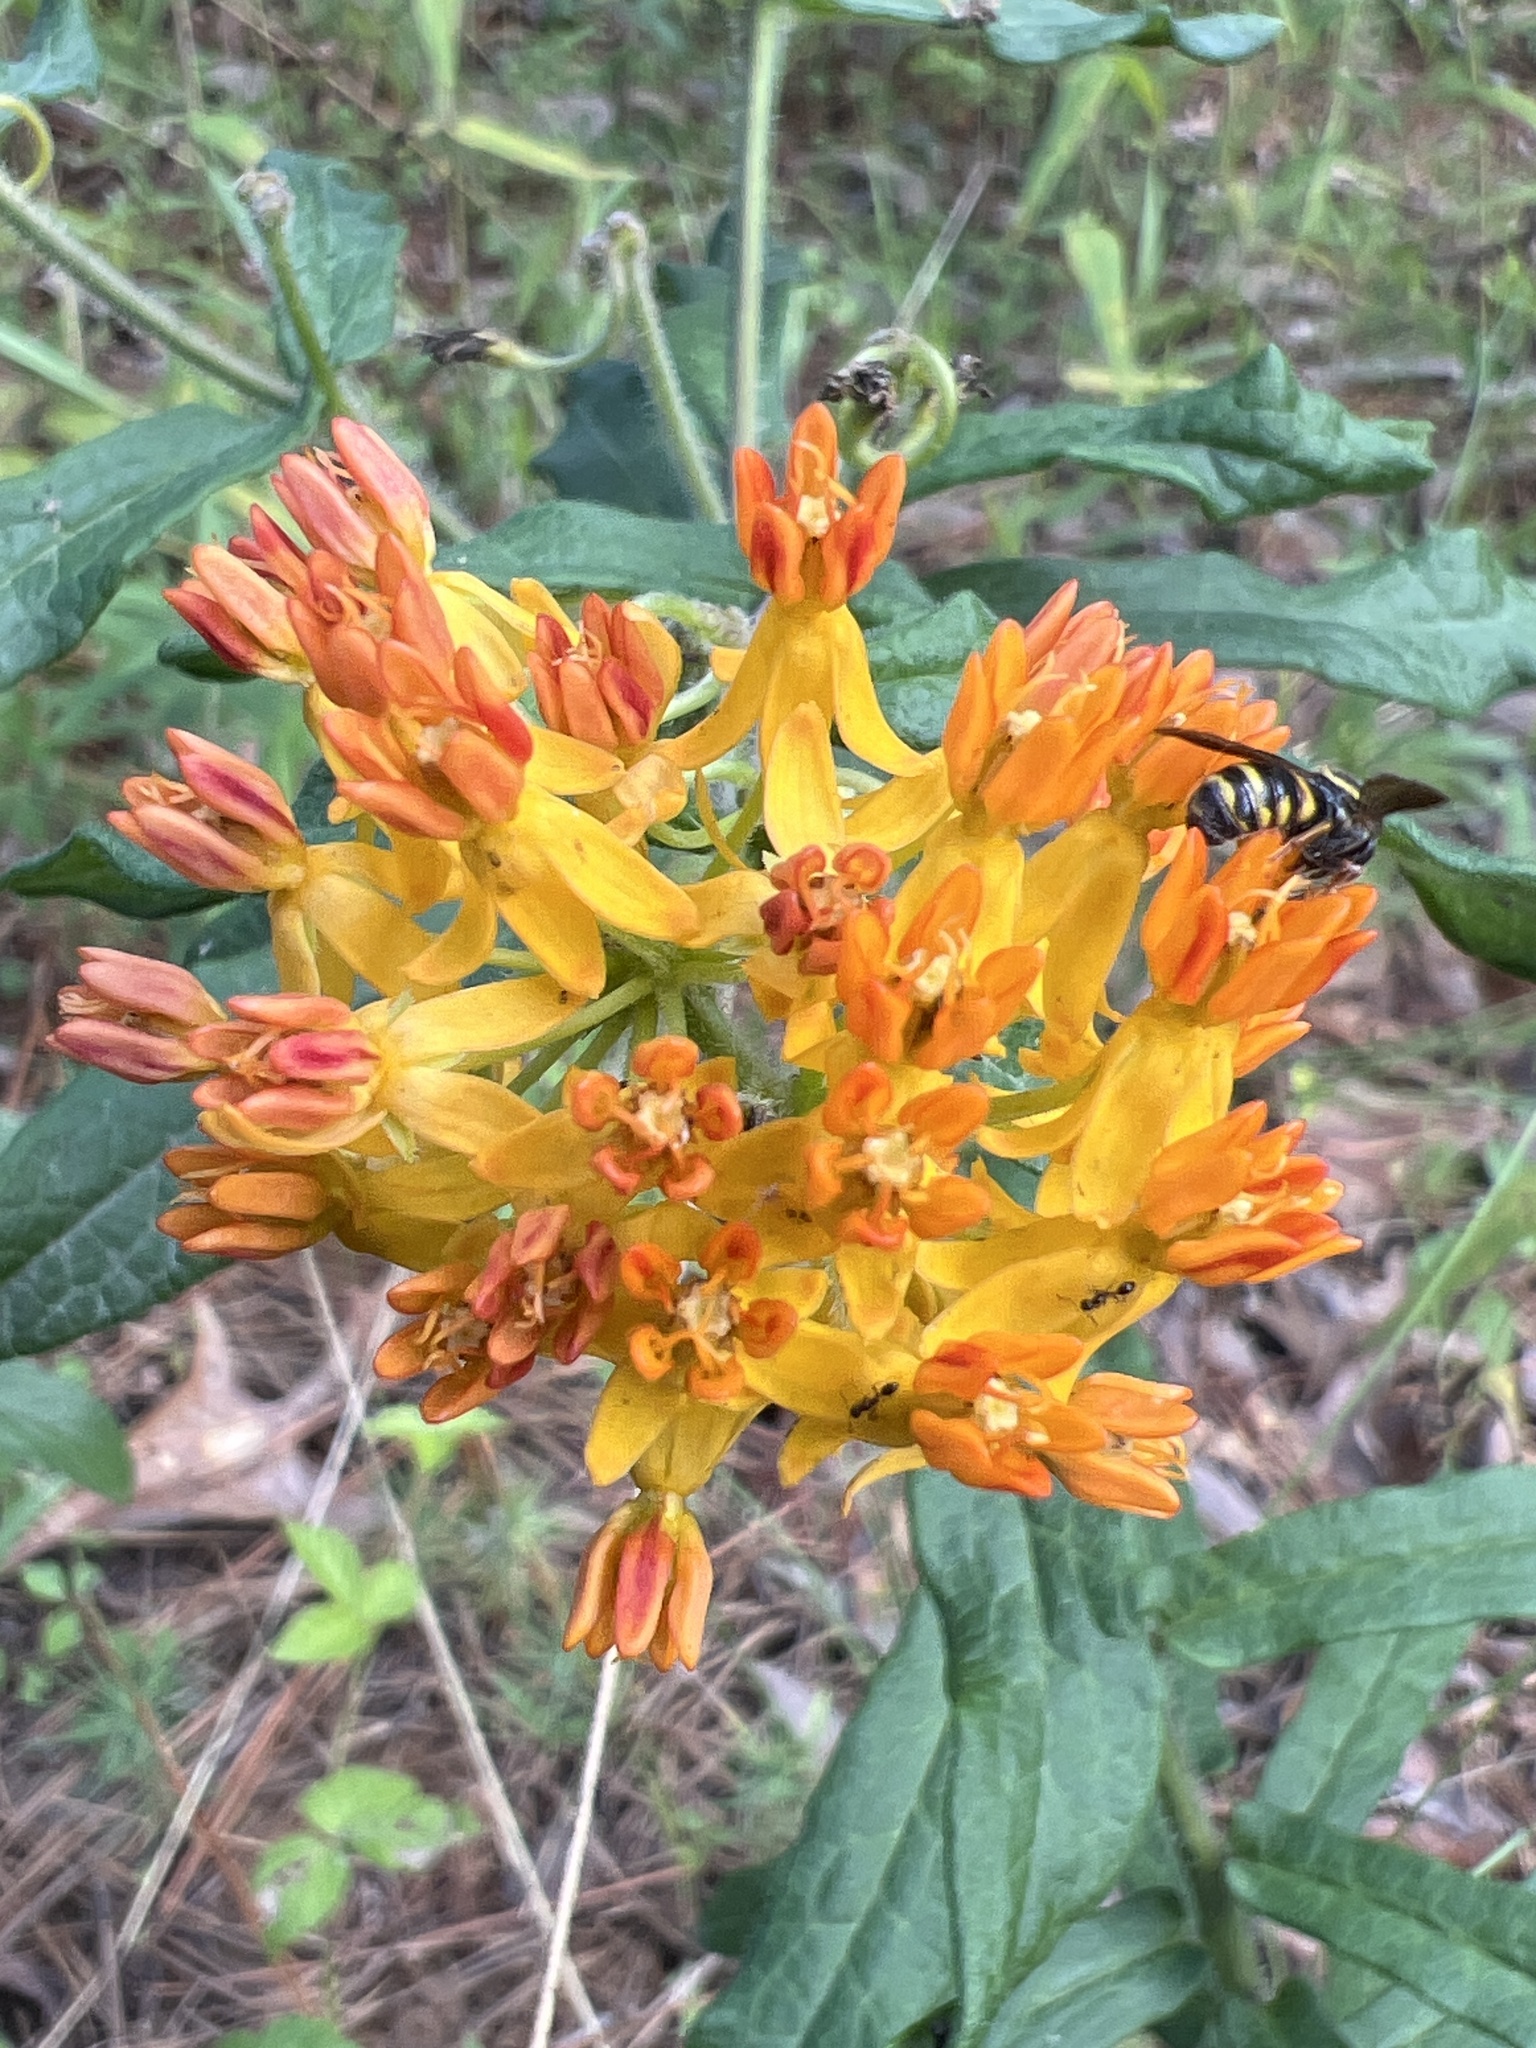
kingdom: Plantae
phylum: Tracheophyta
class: Magnoliopsida
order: Gentianales
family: Apocynaceae
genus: Asclepias
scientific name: Asclepias tuberosa
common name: Butterfly milkweed
